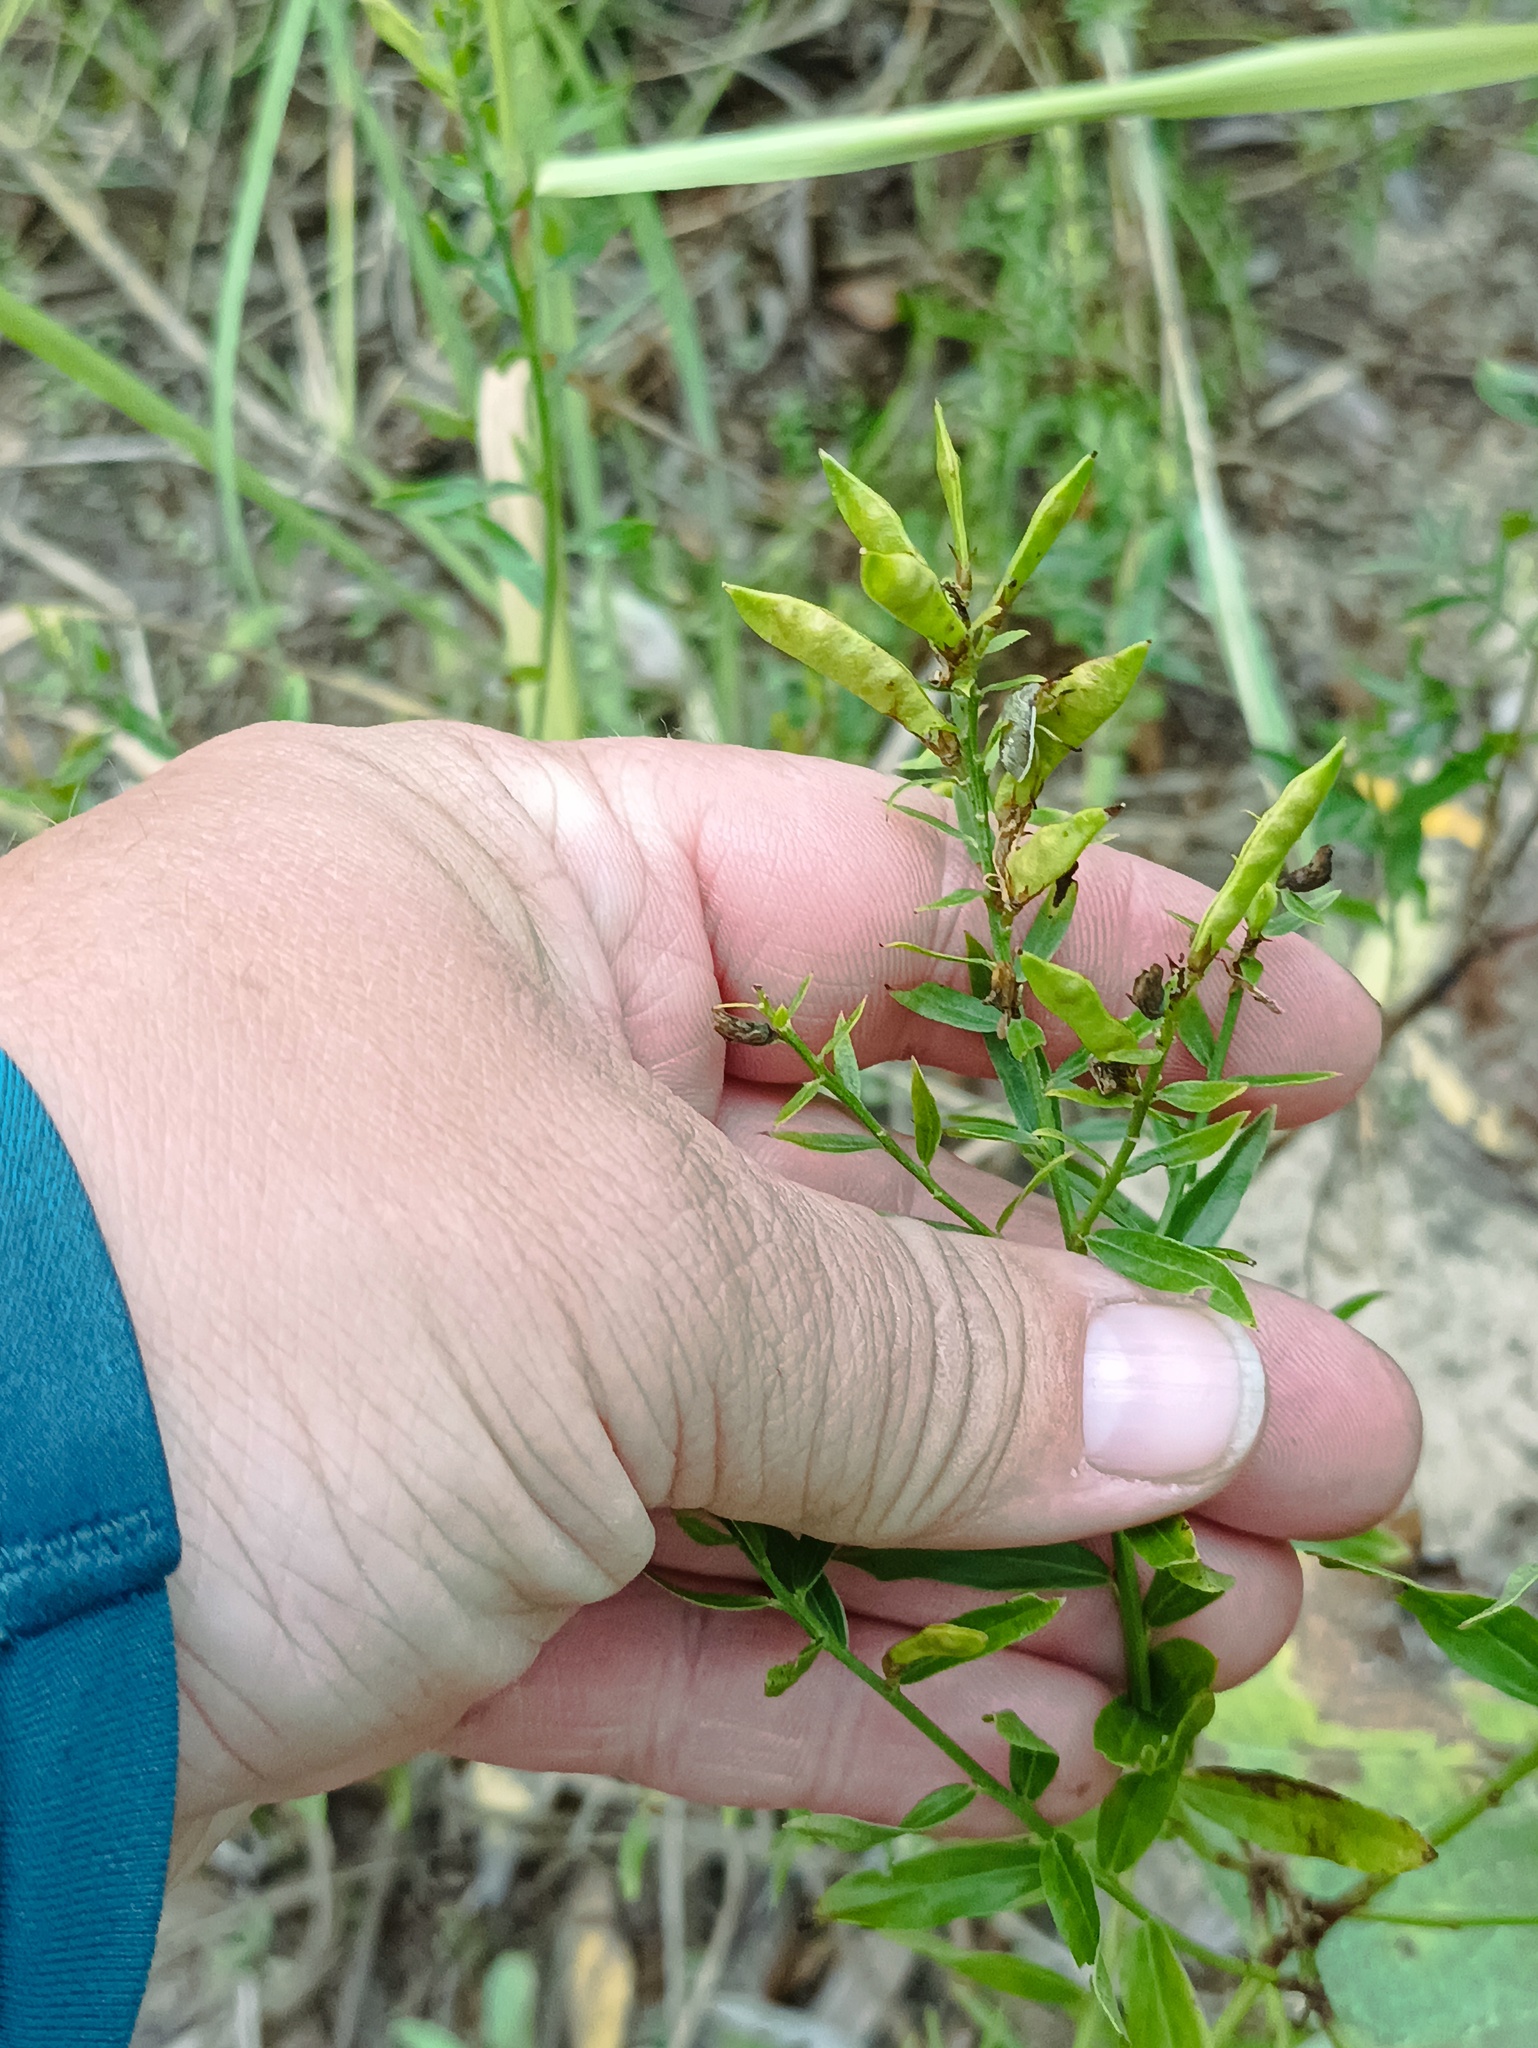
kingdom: Plantae
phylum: Tracheophyta
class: Magnoliopsida
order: Fabales
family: Fabaceae
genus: Genista
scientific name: Genista tinctoria
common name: Dyer's greenweed
